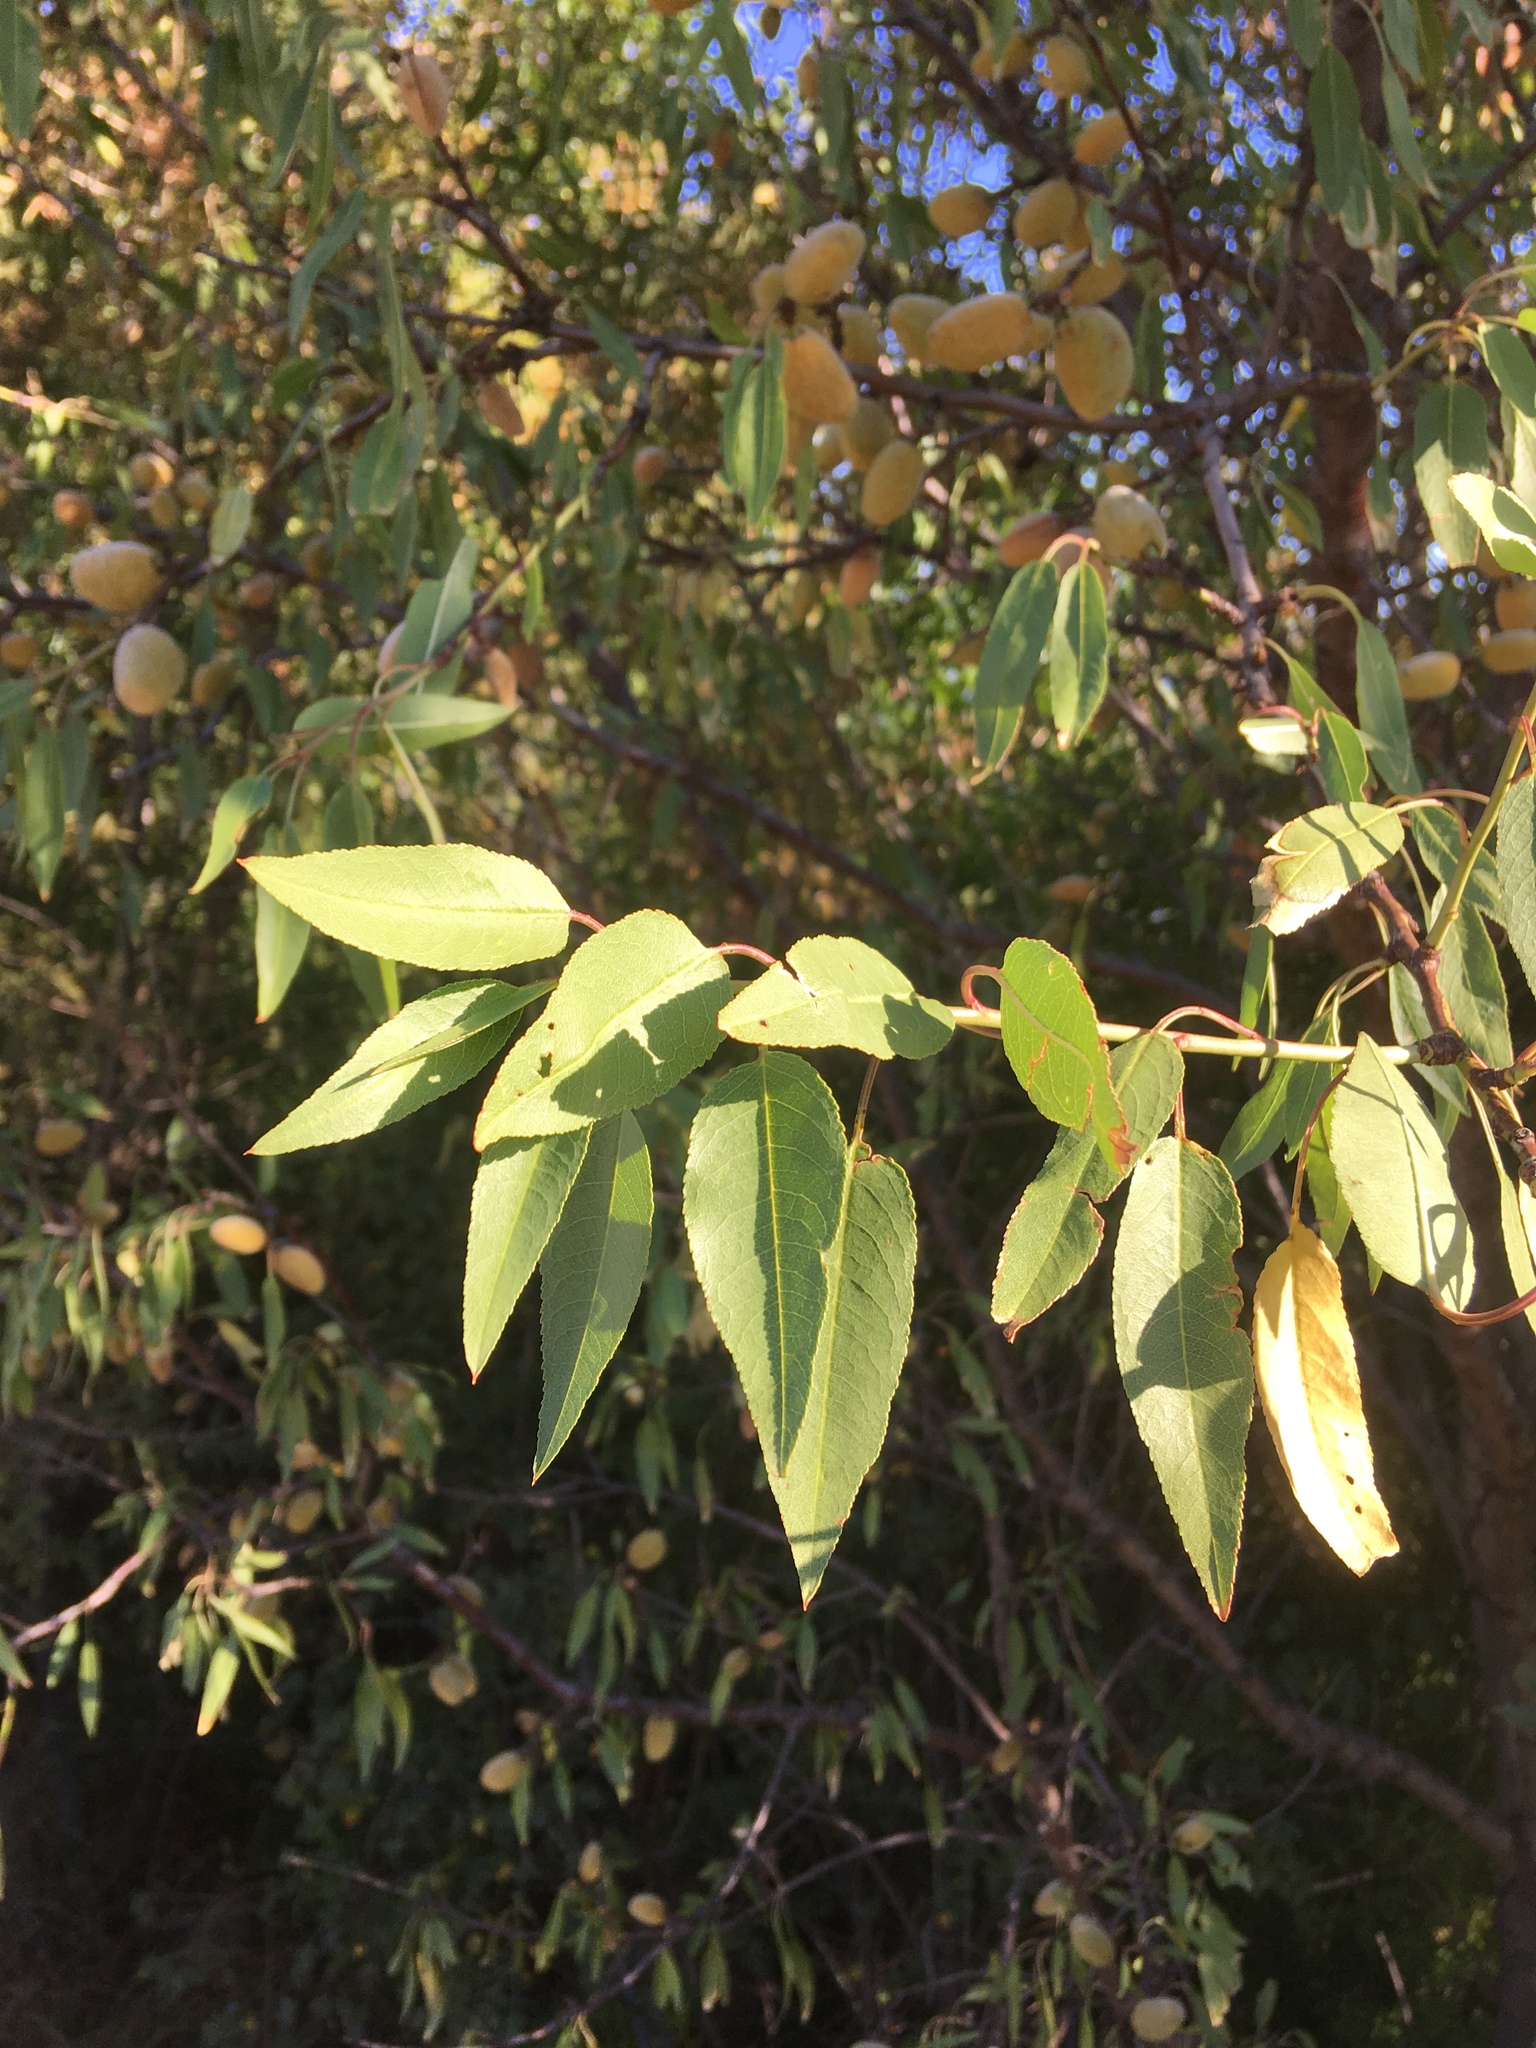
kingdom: Plantae
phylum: Tracheophyta
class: Magnoliopsida
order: Rosales
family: Rosaceae
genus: Prunus
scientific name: Prunus amygdalus
